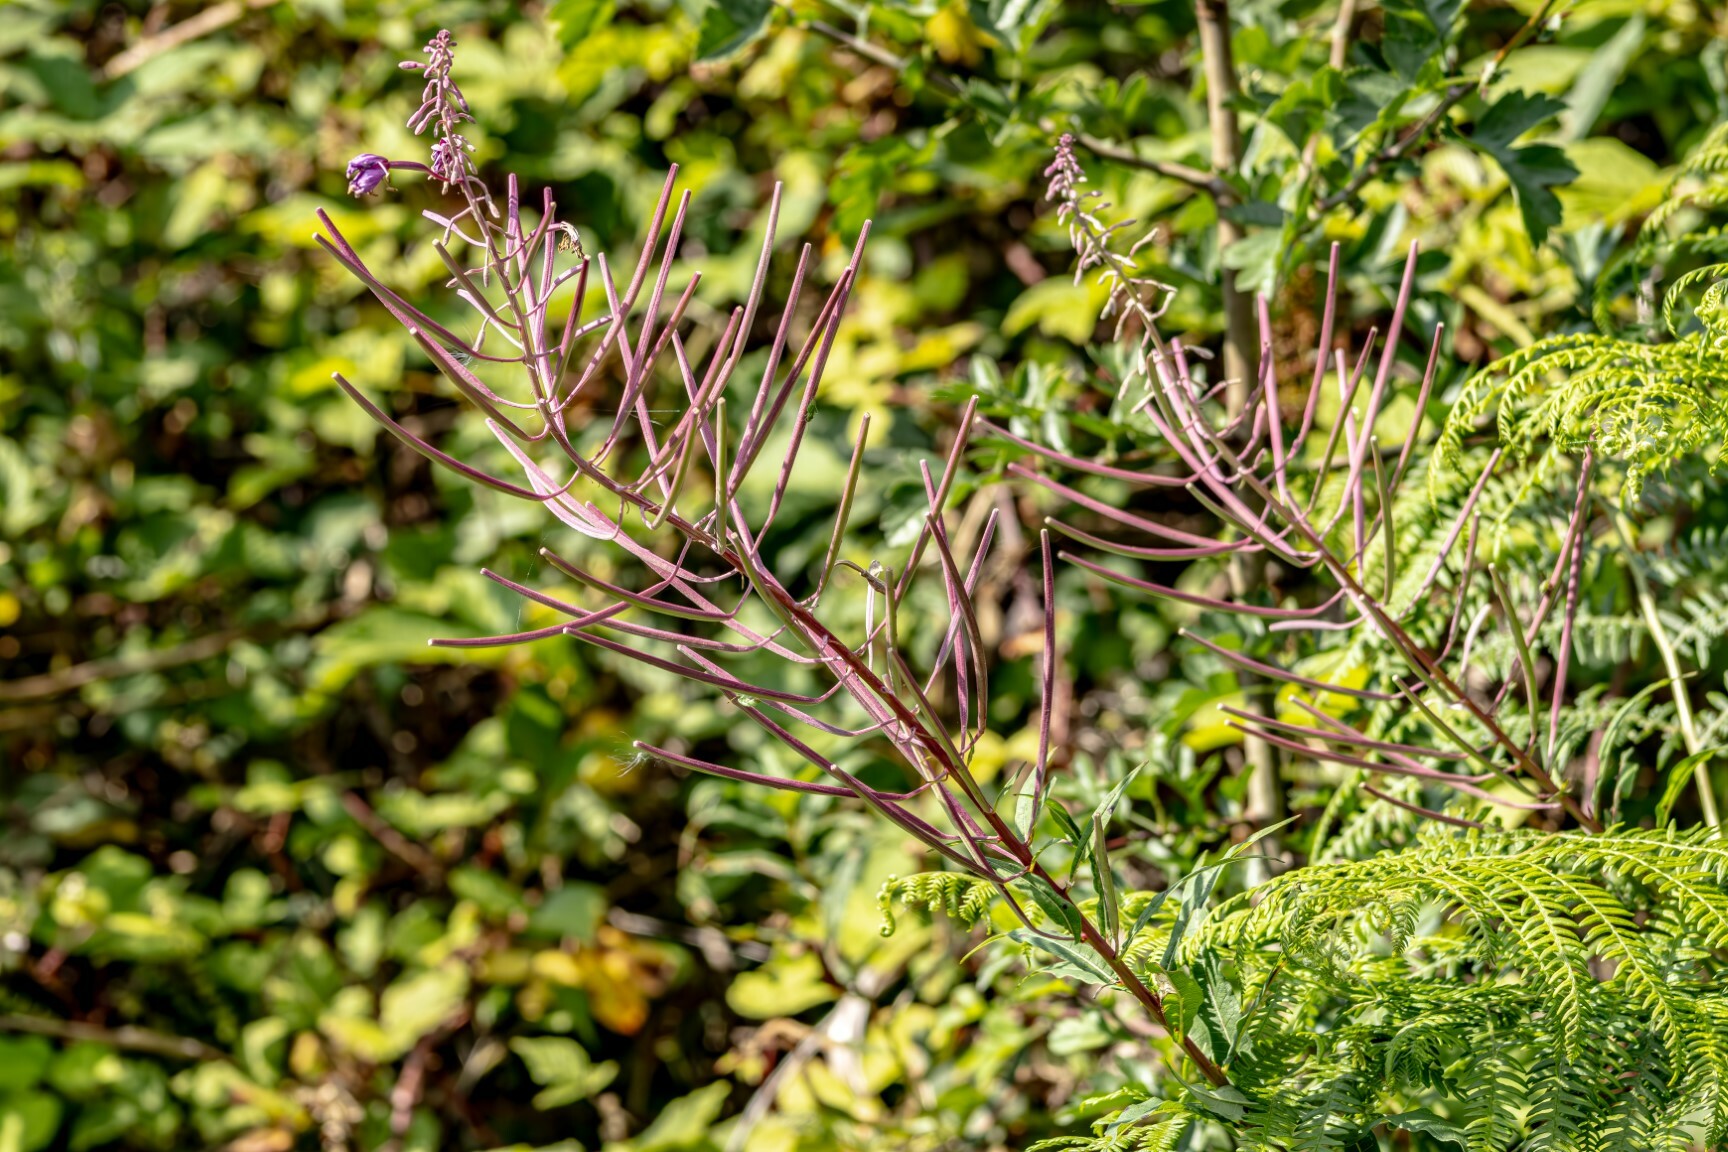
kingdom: Plantae
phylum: Tracheophyta
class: Magnoliopsida
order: Myrtales
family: Onagraceae
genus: Chamaenerion
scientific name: Chamaenerion angustifolium
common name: Fireweed
